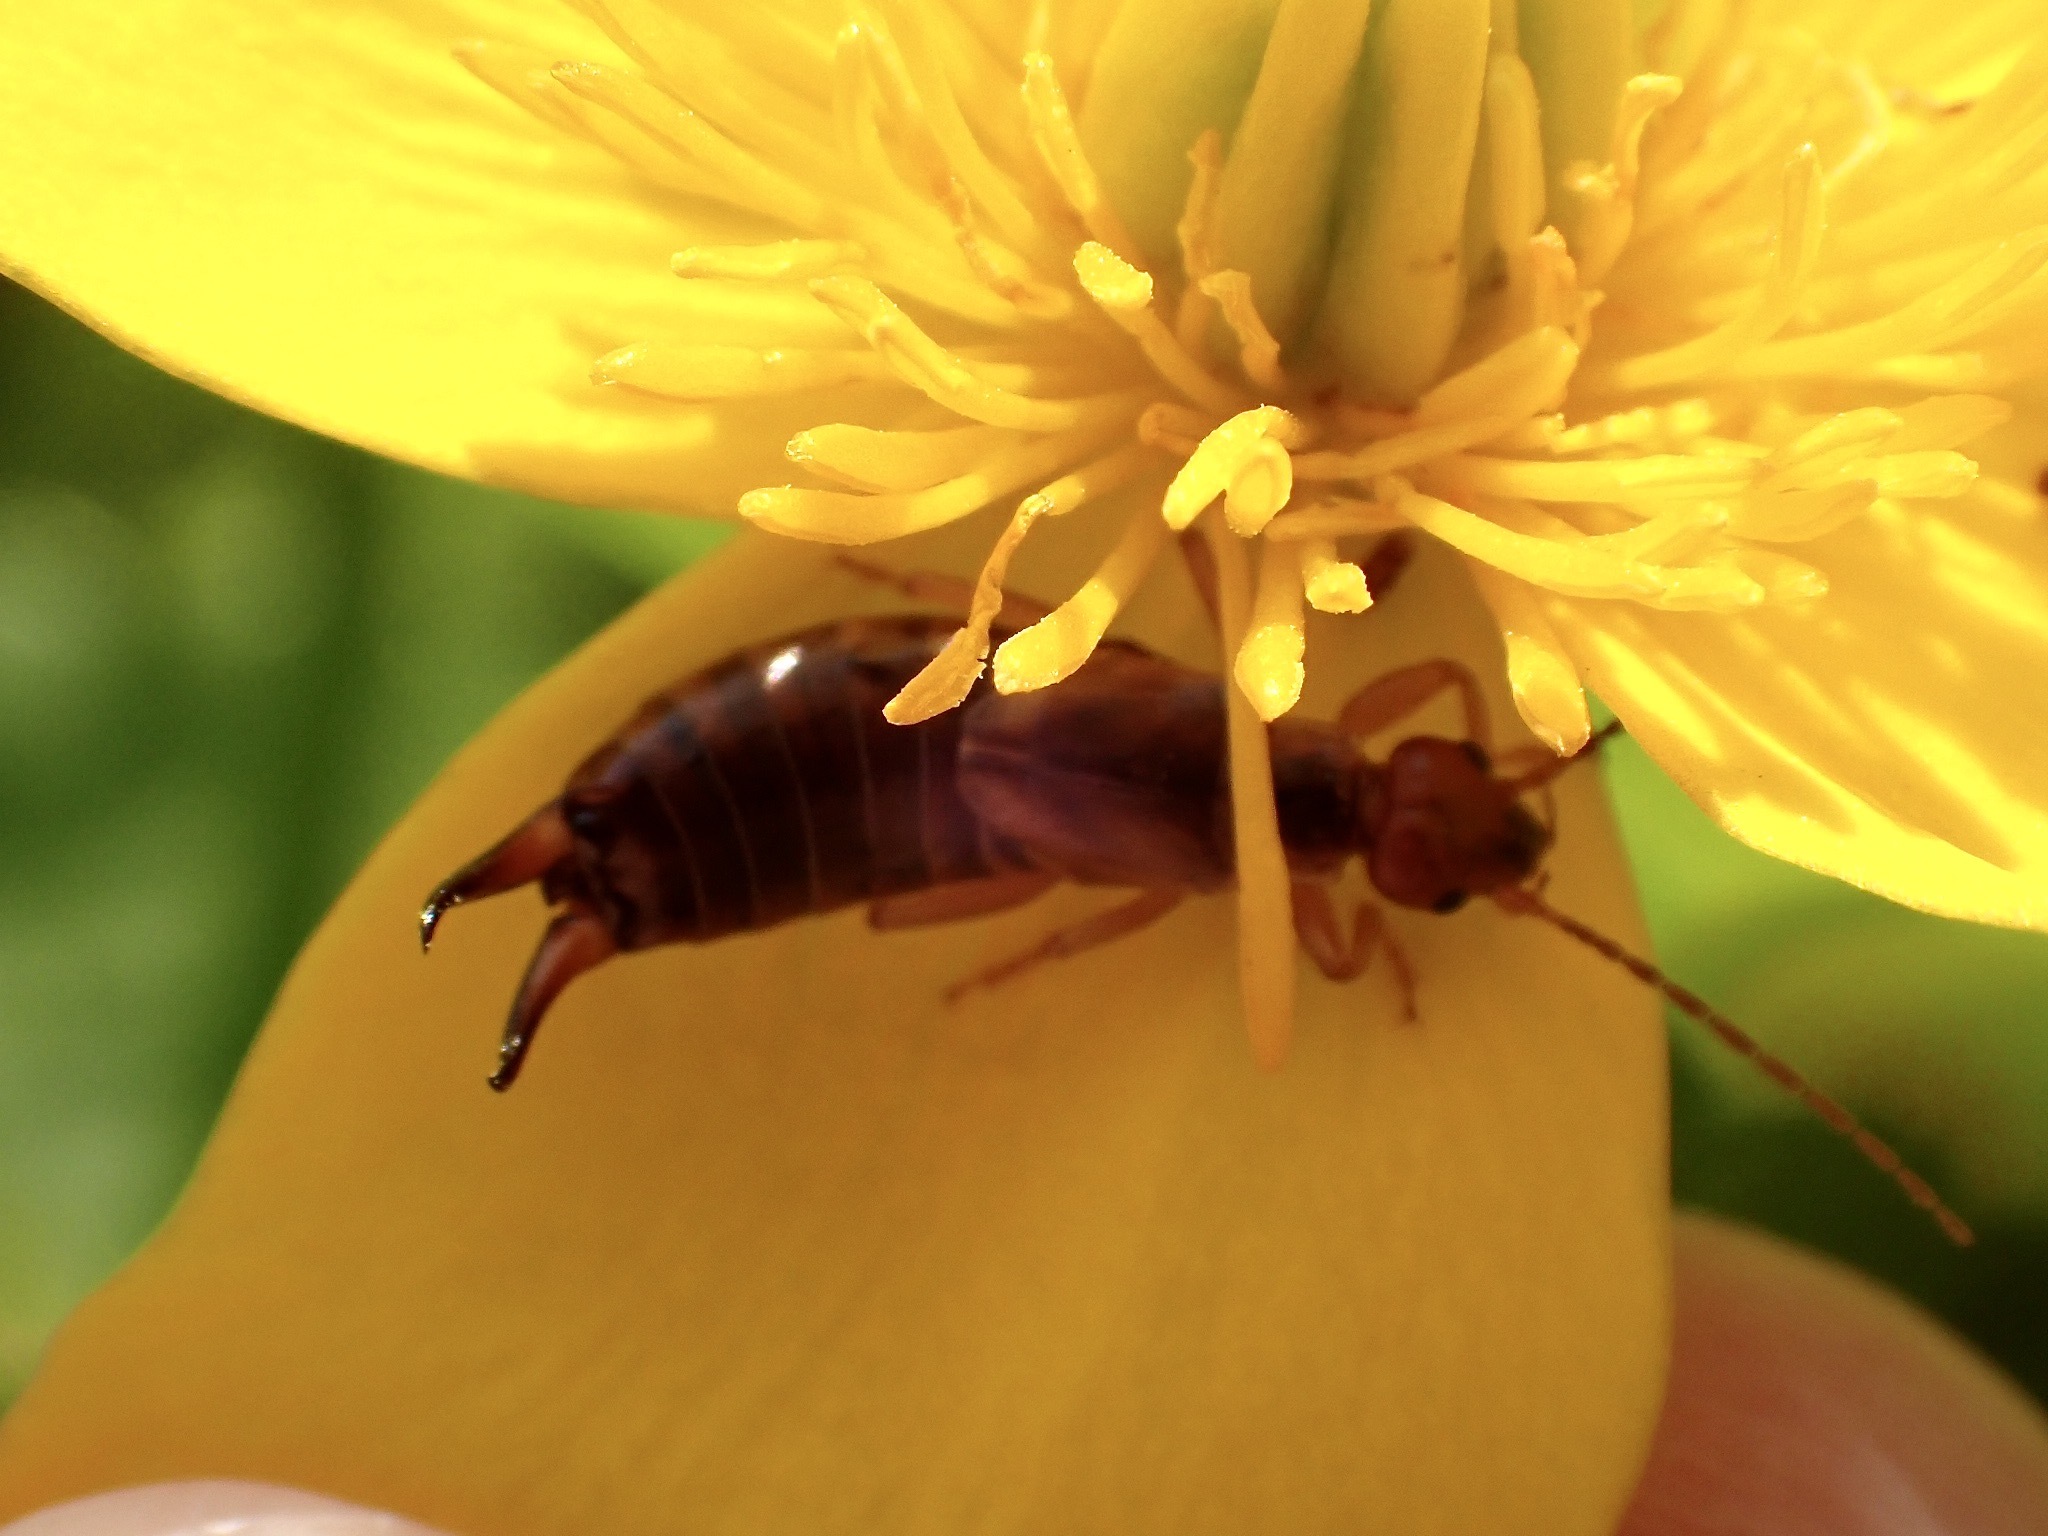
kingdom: Animalia
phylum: Arthropoda
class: Insecta
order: Dermaptera
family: Forficulidae
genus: Forficula
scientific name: Forficula
